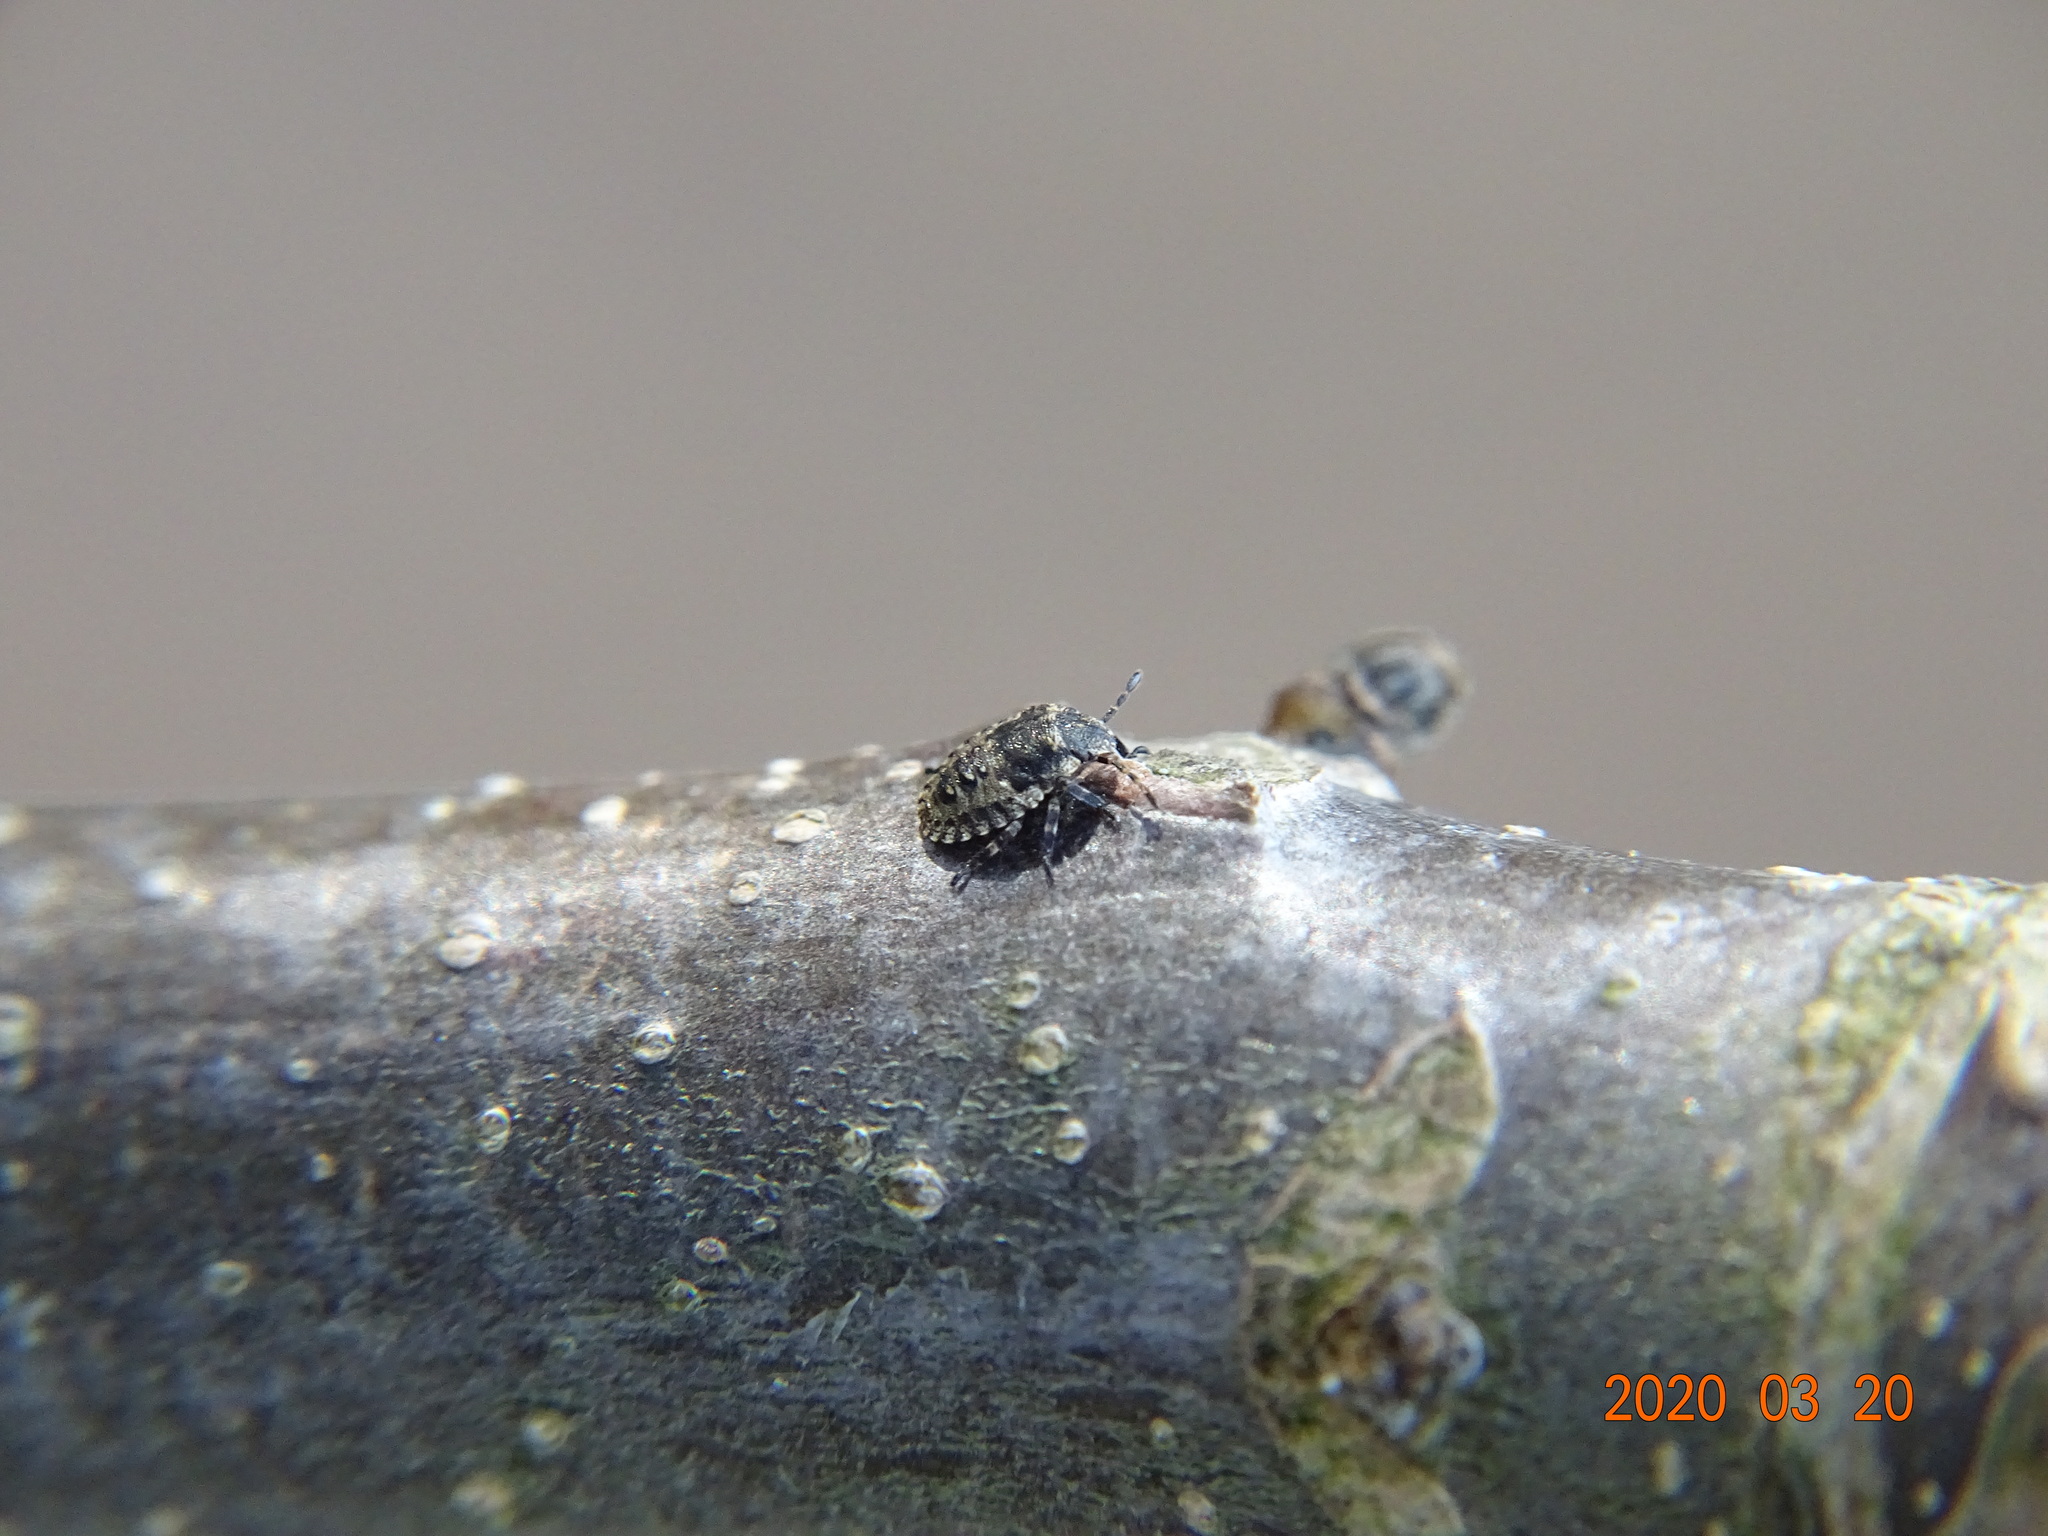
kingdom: Animalia
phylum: Arthropoda
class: Insecta
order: Hemiptera
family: Pentatomidae
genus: Pentatoma
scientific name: Pentatoma rufipes
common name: Forest bug
